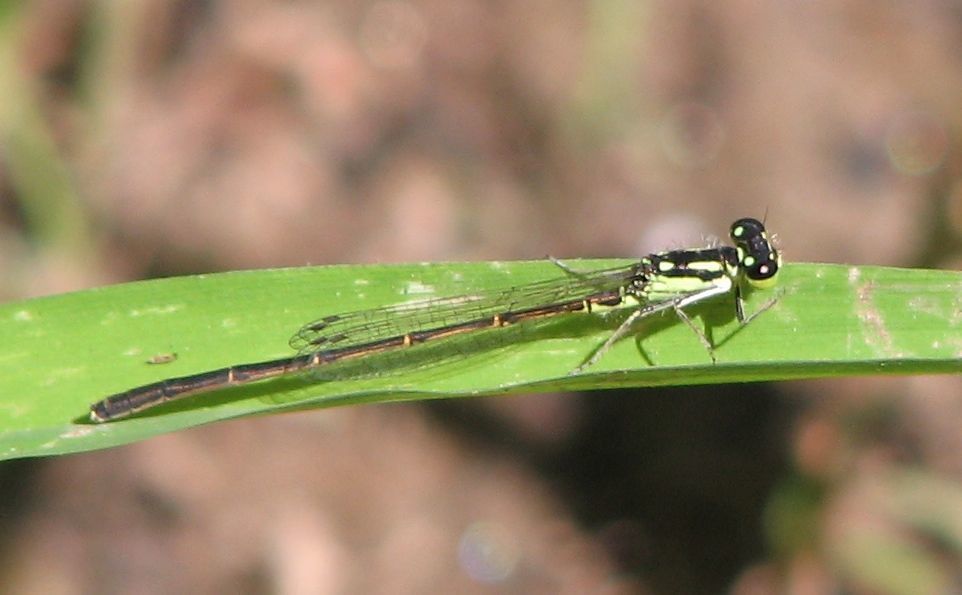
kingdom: Animalia
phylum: Arthropoda
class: Insecta
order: Odonata
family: Coenagrionidae
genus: Ischnura
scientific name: Ischnura posita
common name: Fragile forktail
